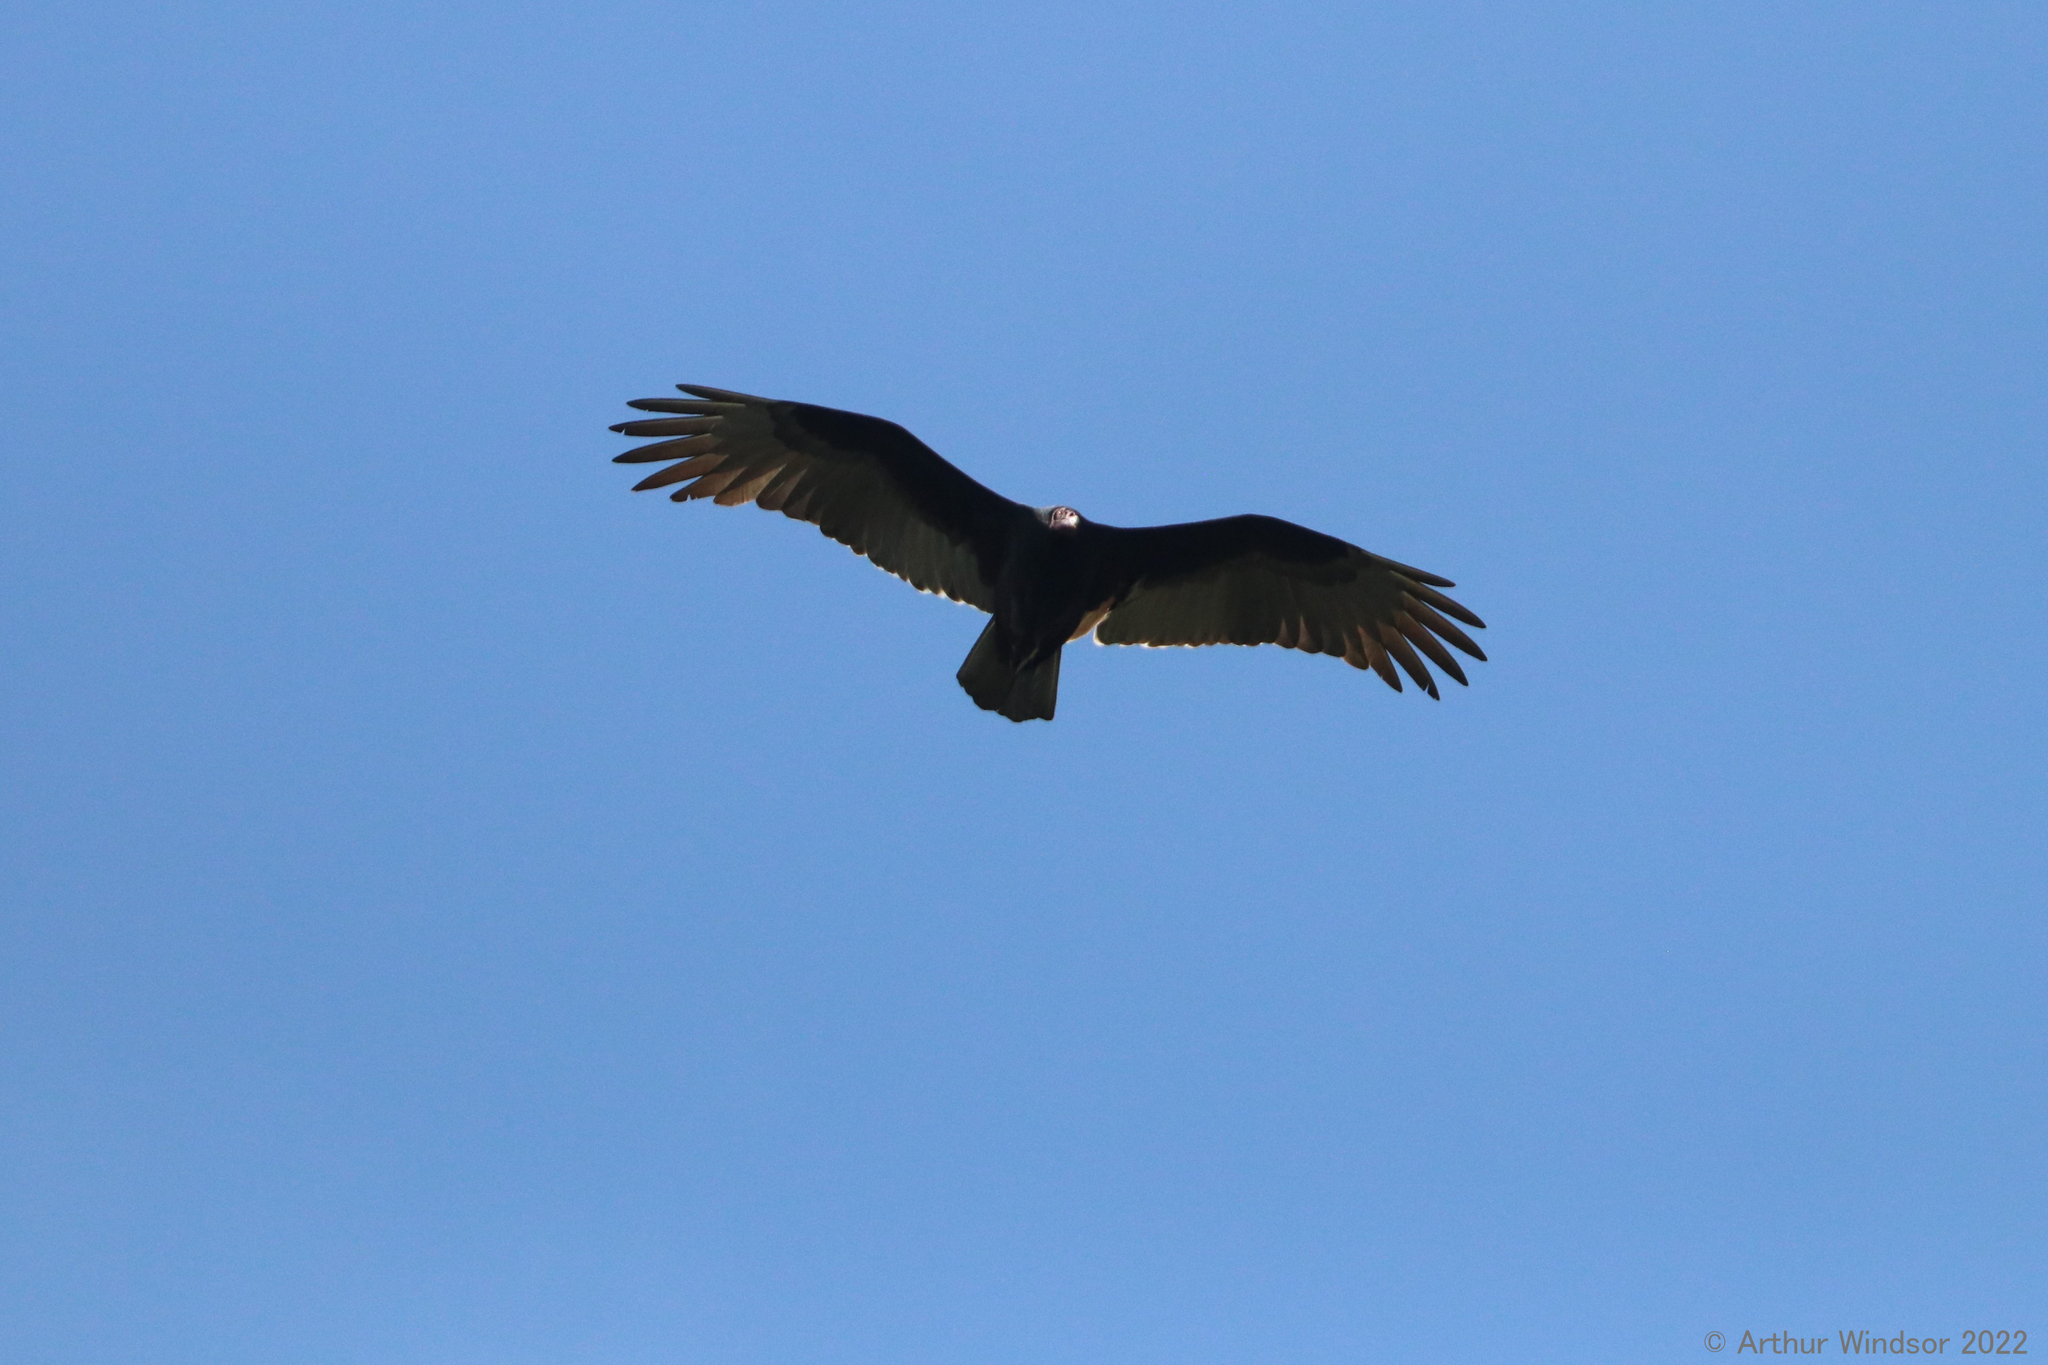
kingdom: Animalia
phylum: Chordata
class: Aves
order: Accipitriformes
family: Cathartidae
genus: Cathartes
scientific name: Cathartes aura
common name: Turkey vulture
